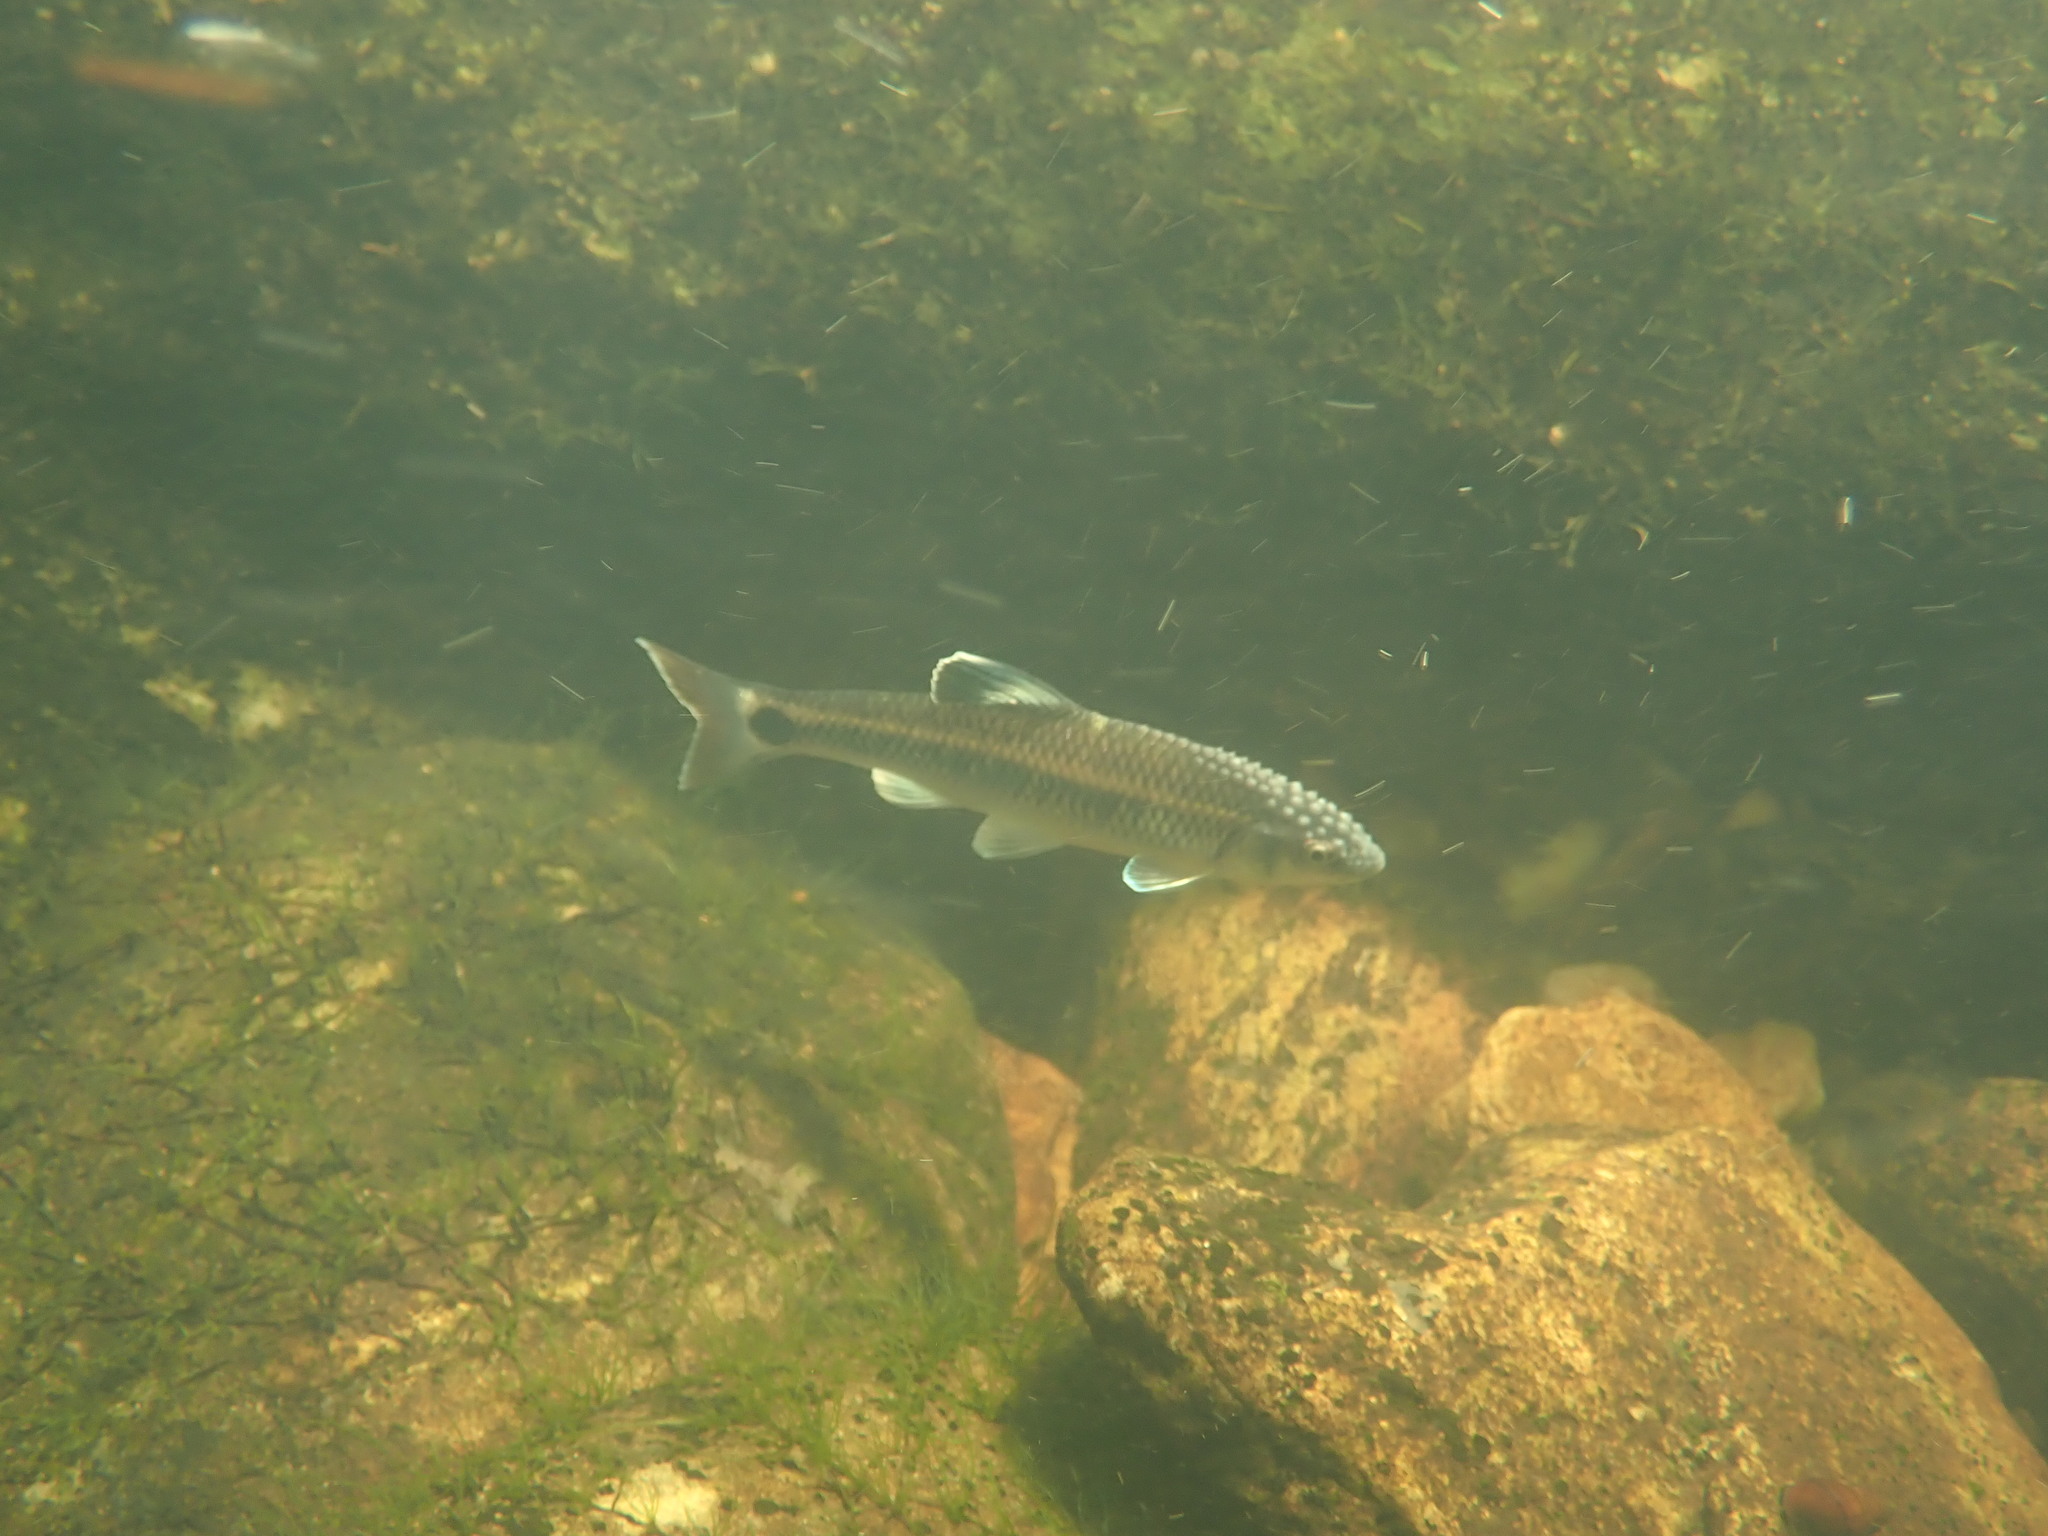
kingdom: Animalia
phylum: Chordata
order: Cypriniformes
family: Cyprinidae
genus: Cyprinella
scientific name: Cyprinella callistia
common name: Alabama shiner
